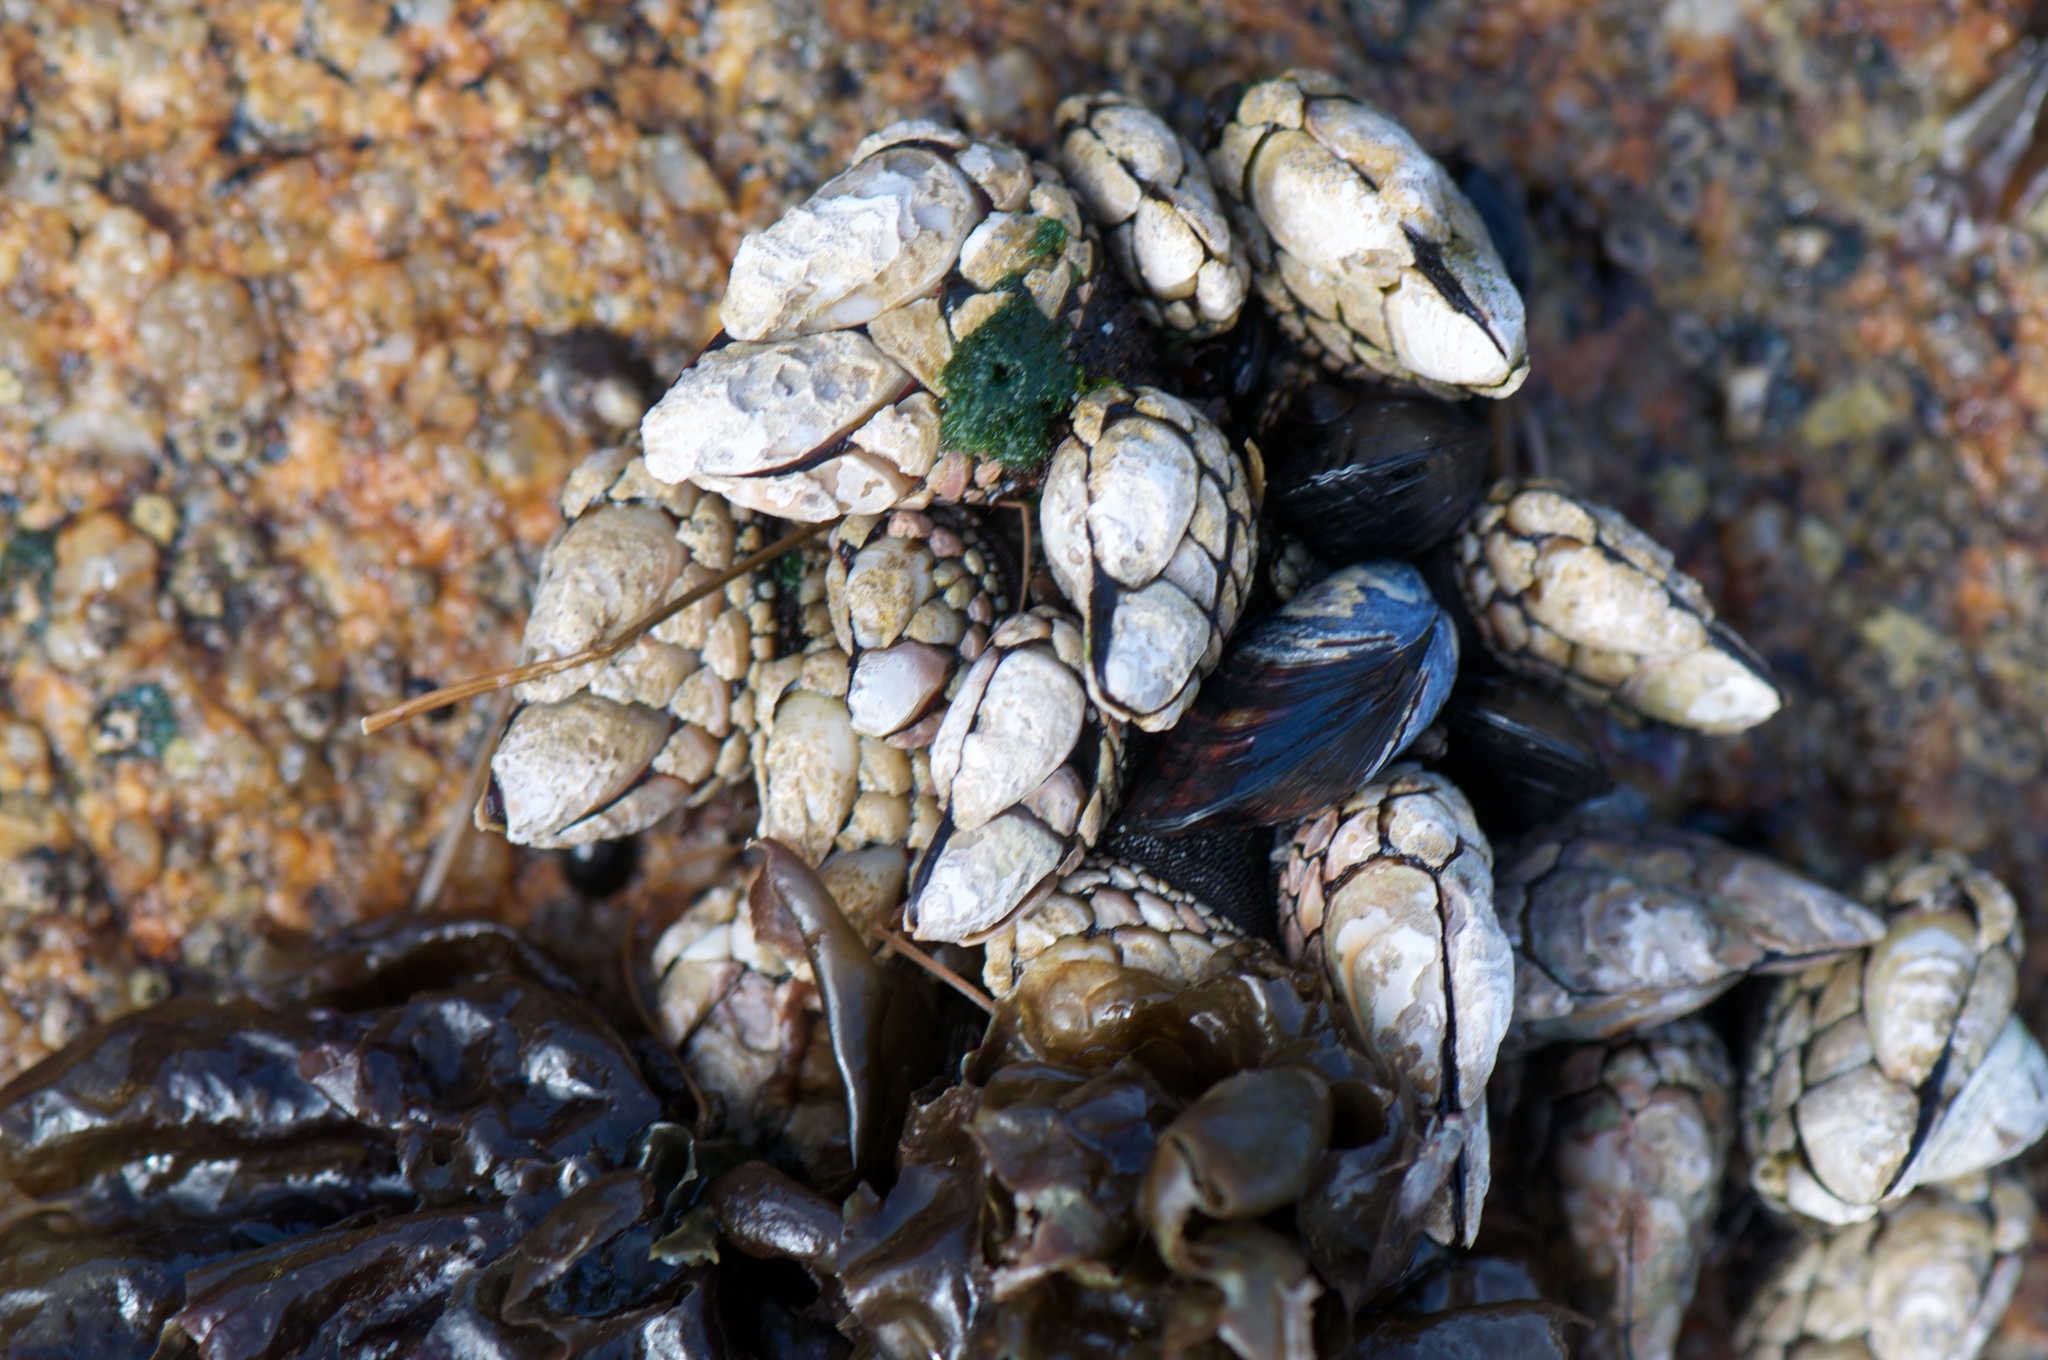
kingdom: Animalia
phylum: Arthropoda
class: Maxillopoda
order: Pedunculata
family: Pollicipedidae
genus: Pollicipes
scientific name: Pollicipes polymerus
